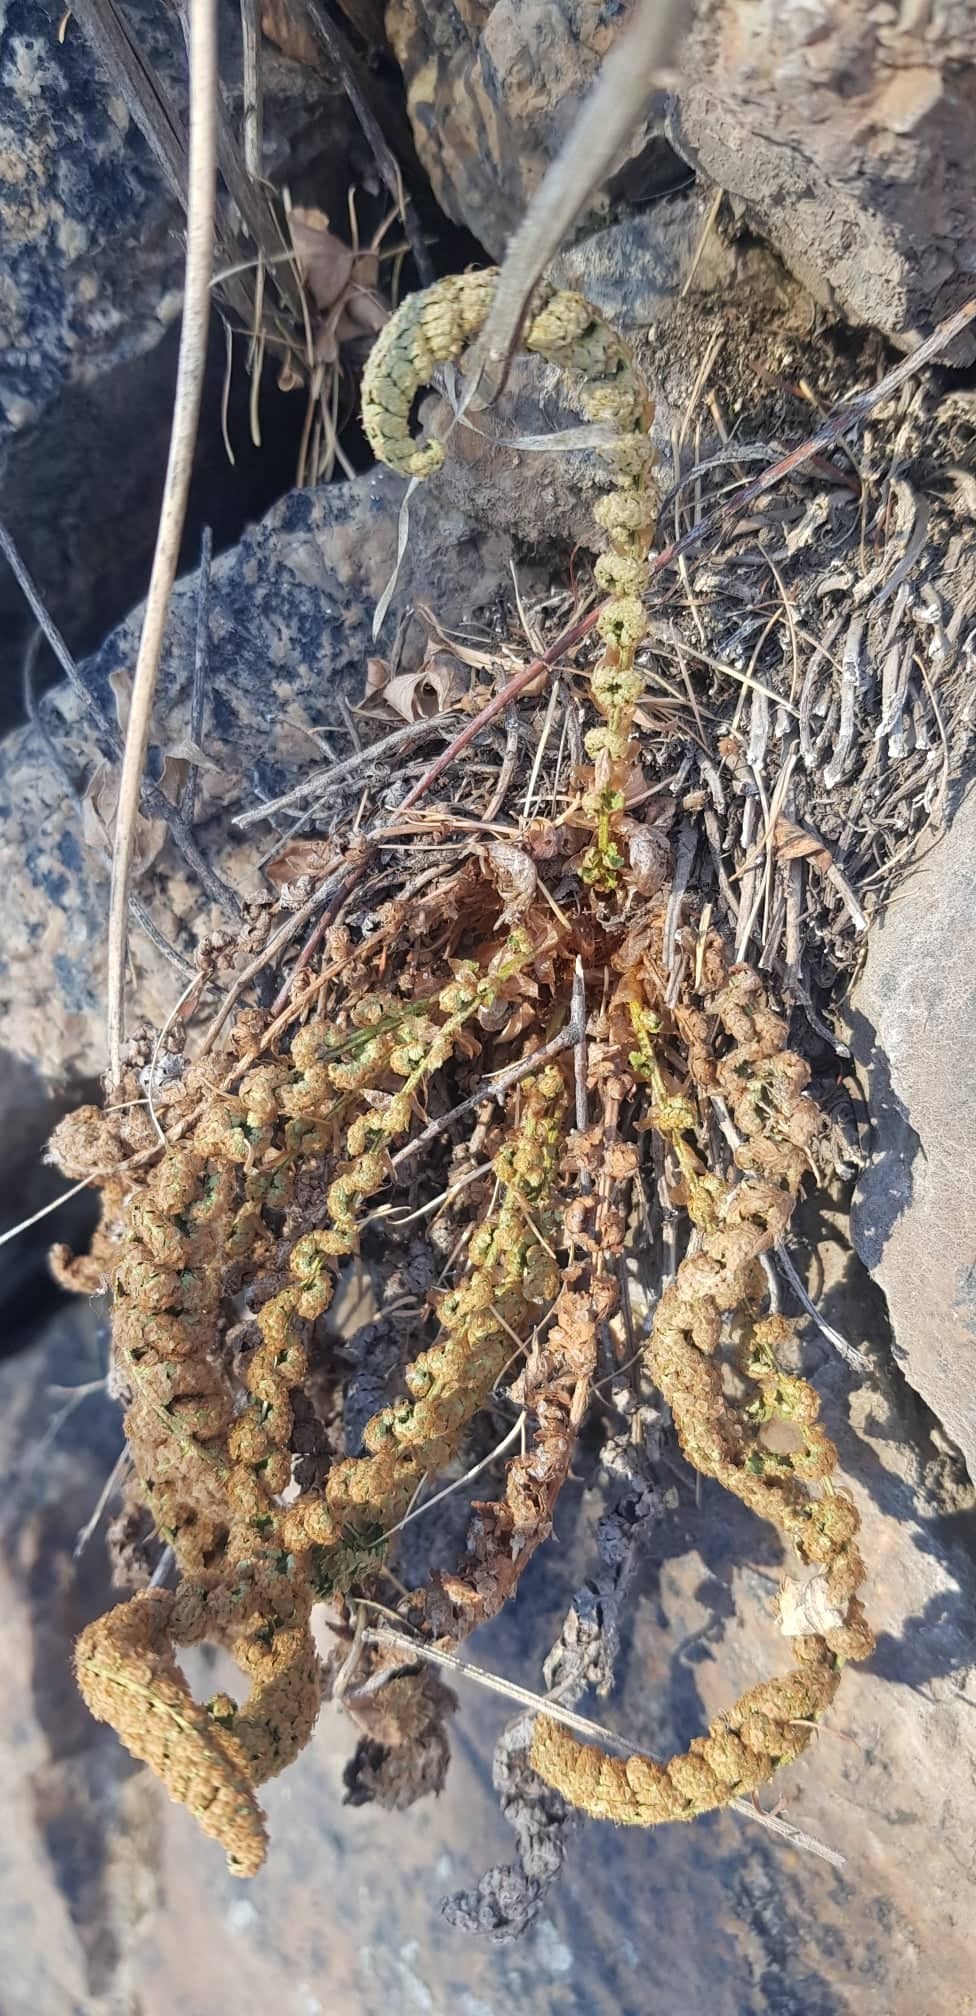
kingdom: Plantae
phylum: Tracheophyta
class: Polypodiopsida
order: Polypodiales
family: Dryopteridaceae
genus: Dryopteris
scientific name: Dryopteris fragrans
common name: Fragrant wood fern
